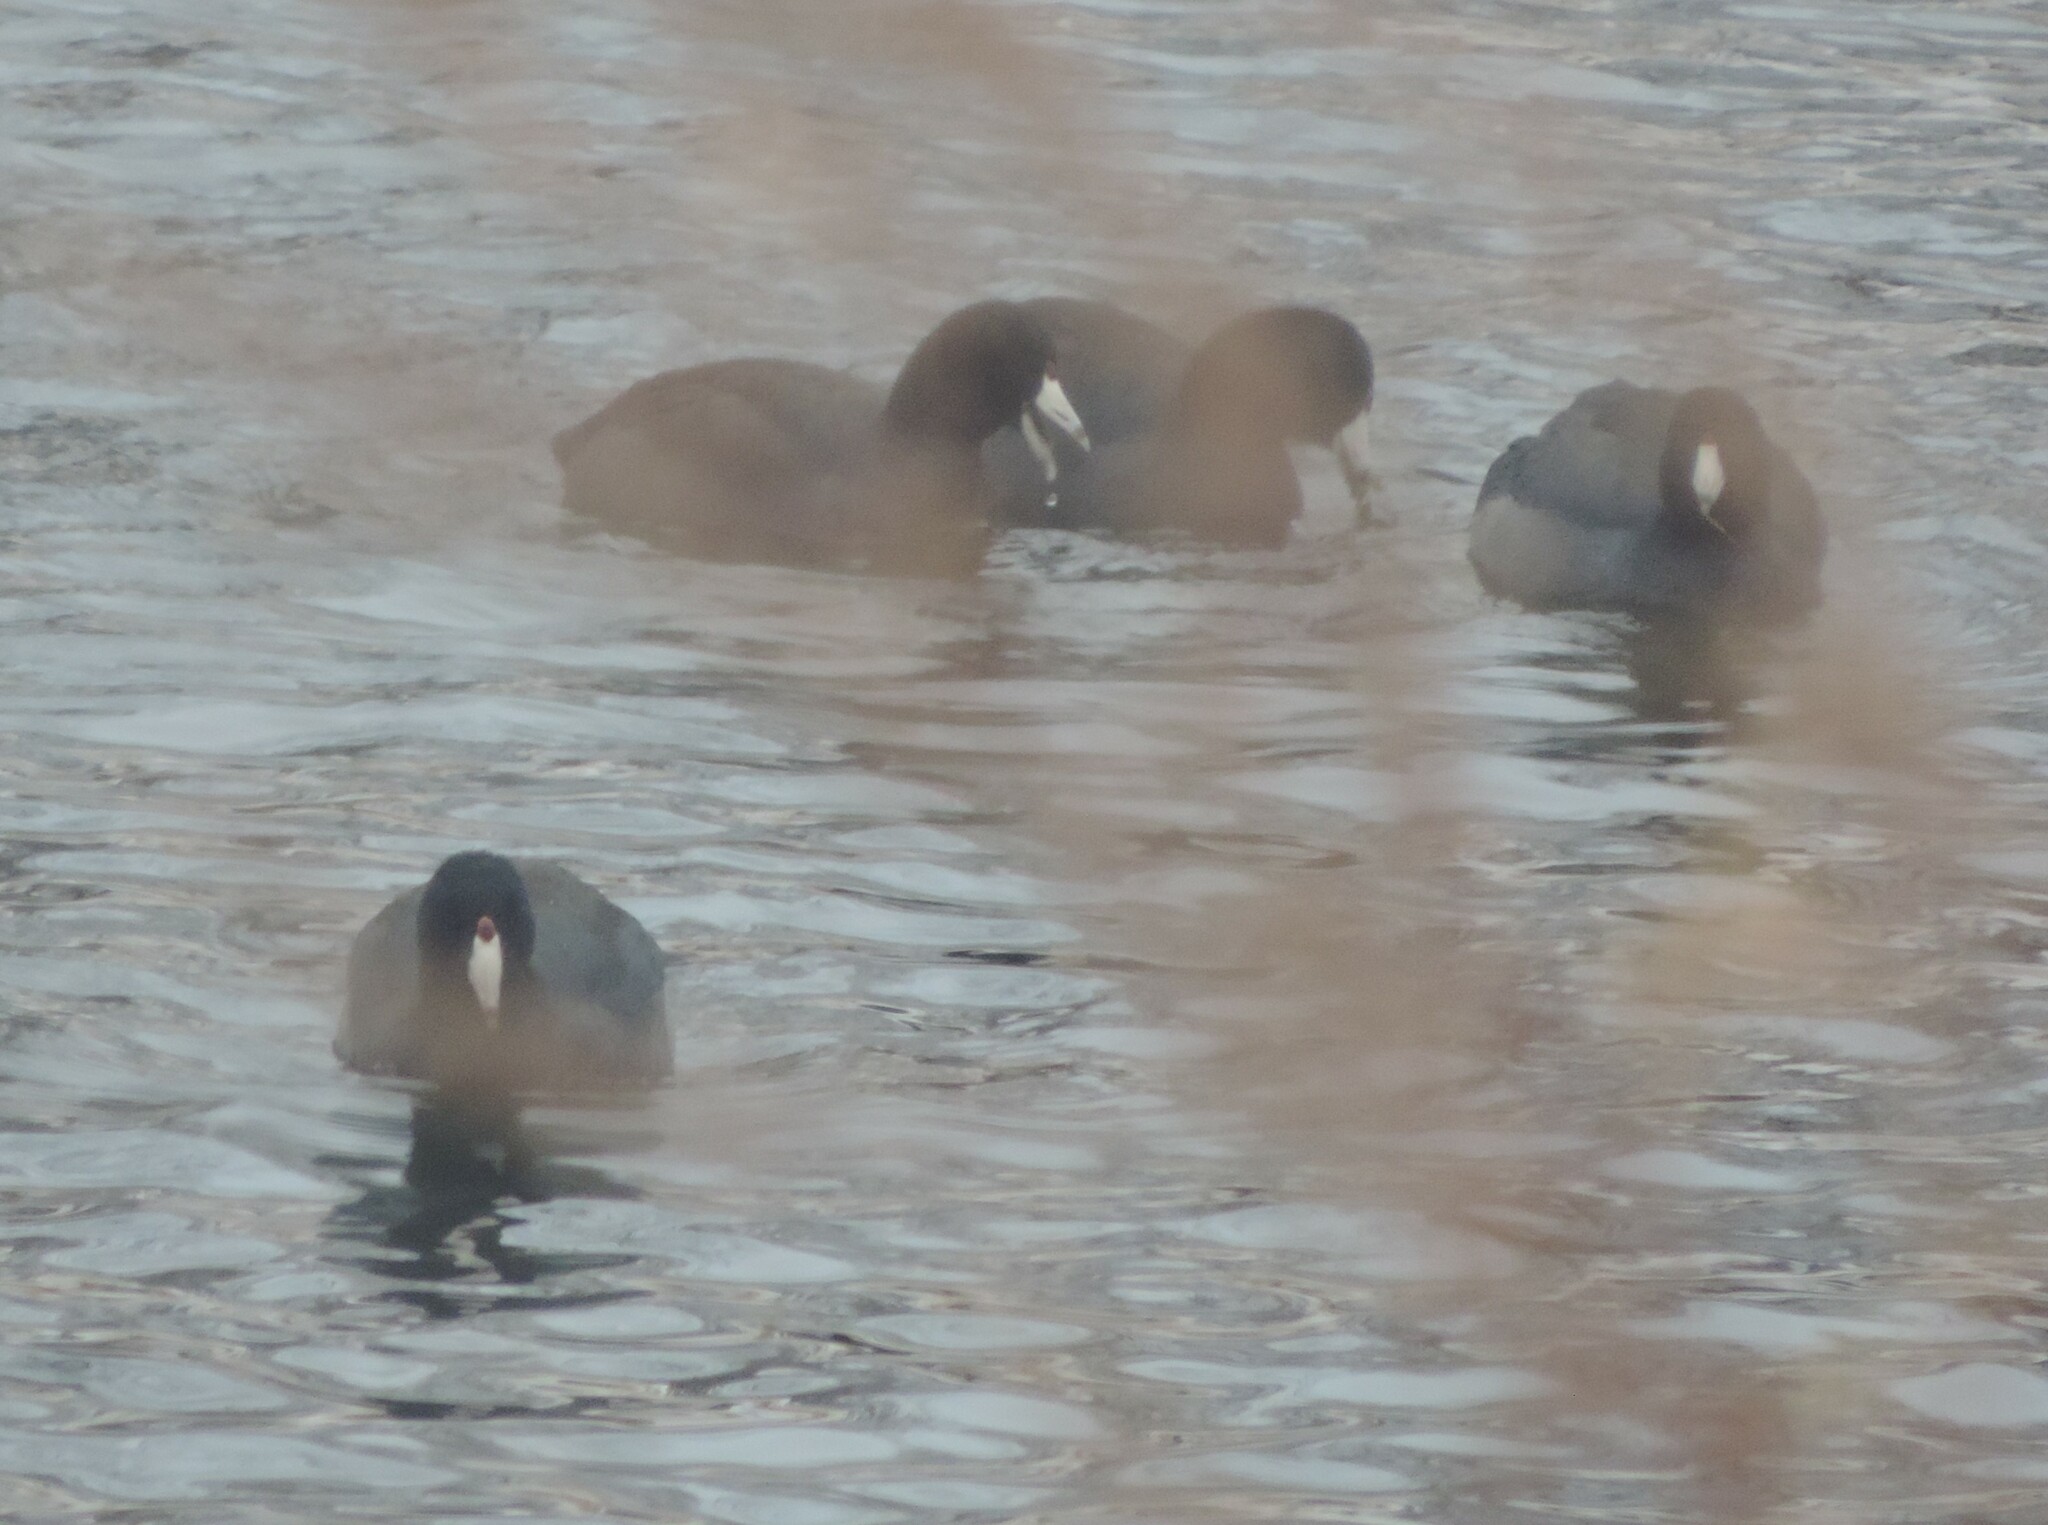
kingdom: Animalia
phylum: Chordata
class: Aves
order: Gruiformes
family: Rallidae
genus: Fulica
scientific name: Fulica americana
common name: American coot
